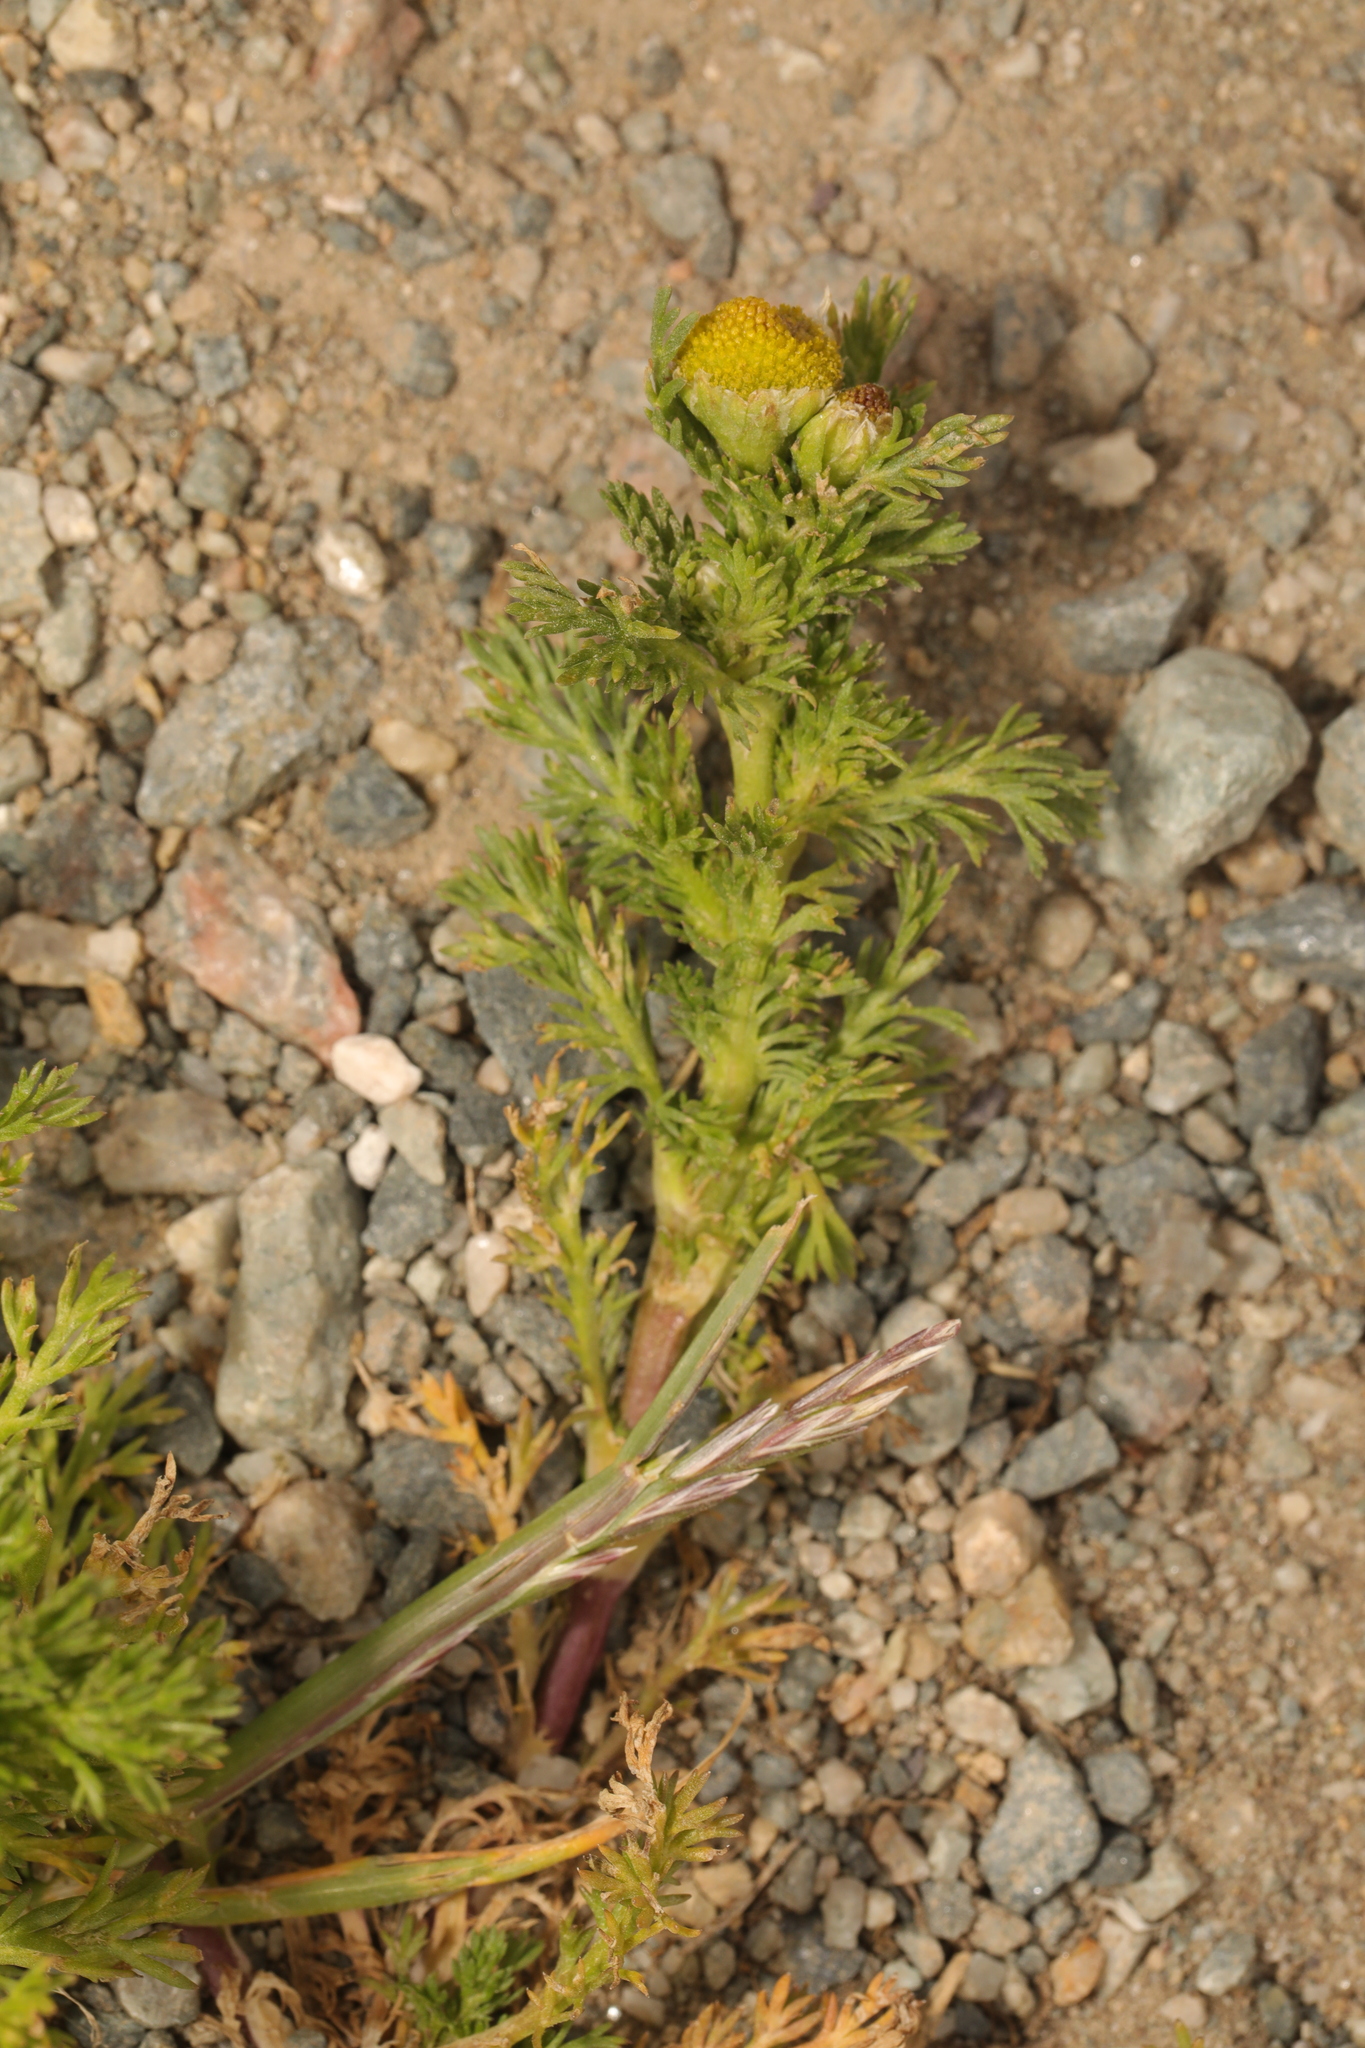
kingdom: Plantae
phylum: Tracheophyta
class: Magnoliopsida
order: Asterales
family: Asteraceae
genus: Matricaria
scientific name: Matricaria discoidea
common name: Disc mayweed
